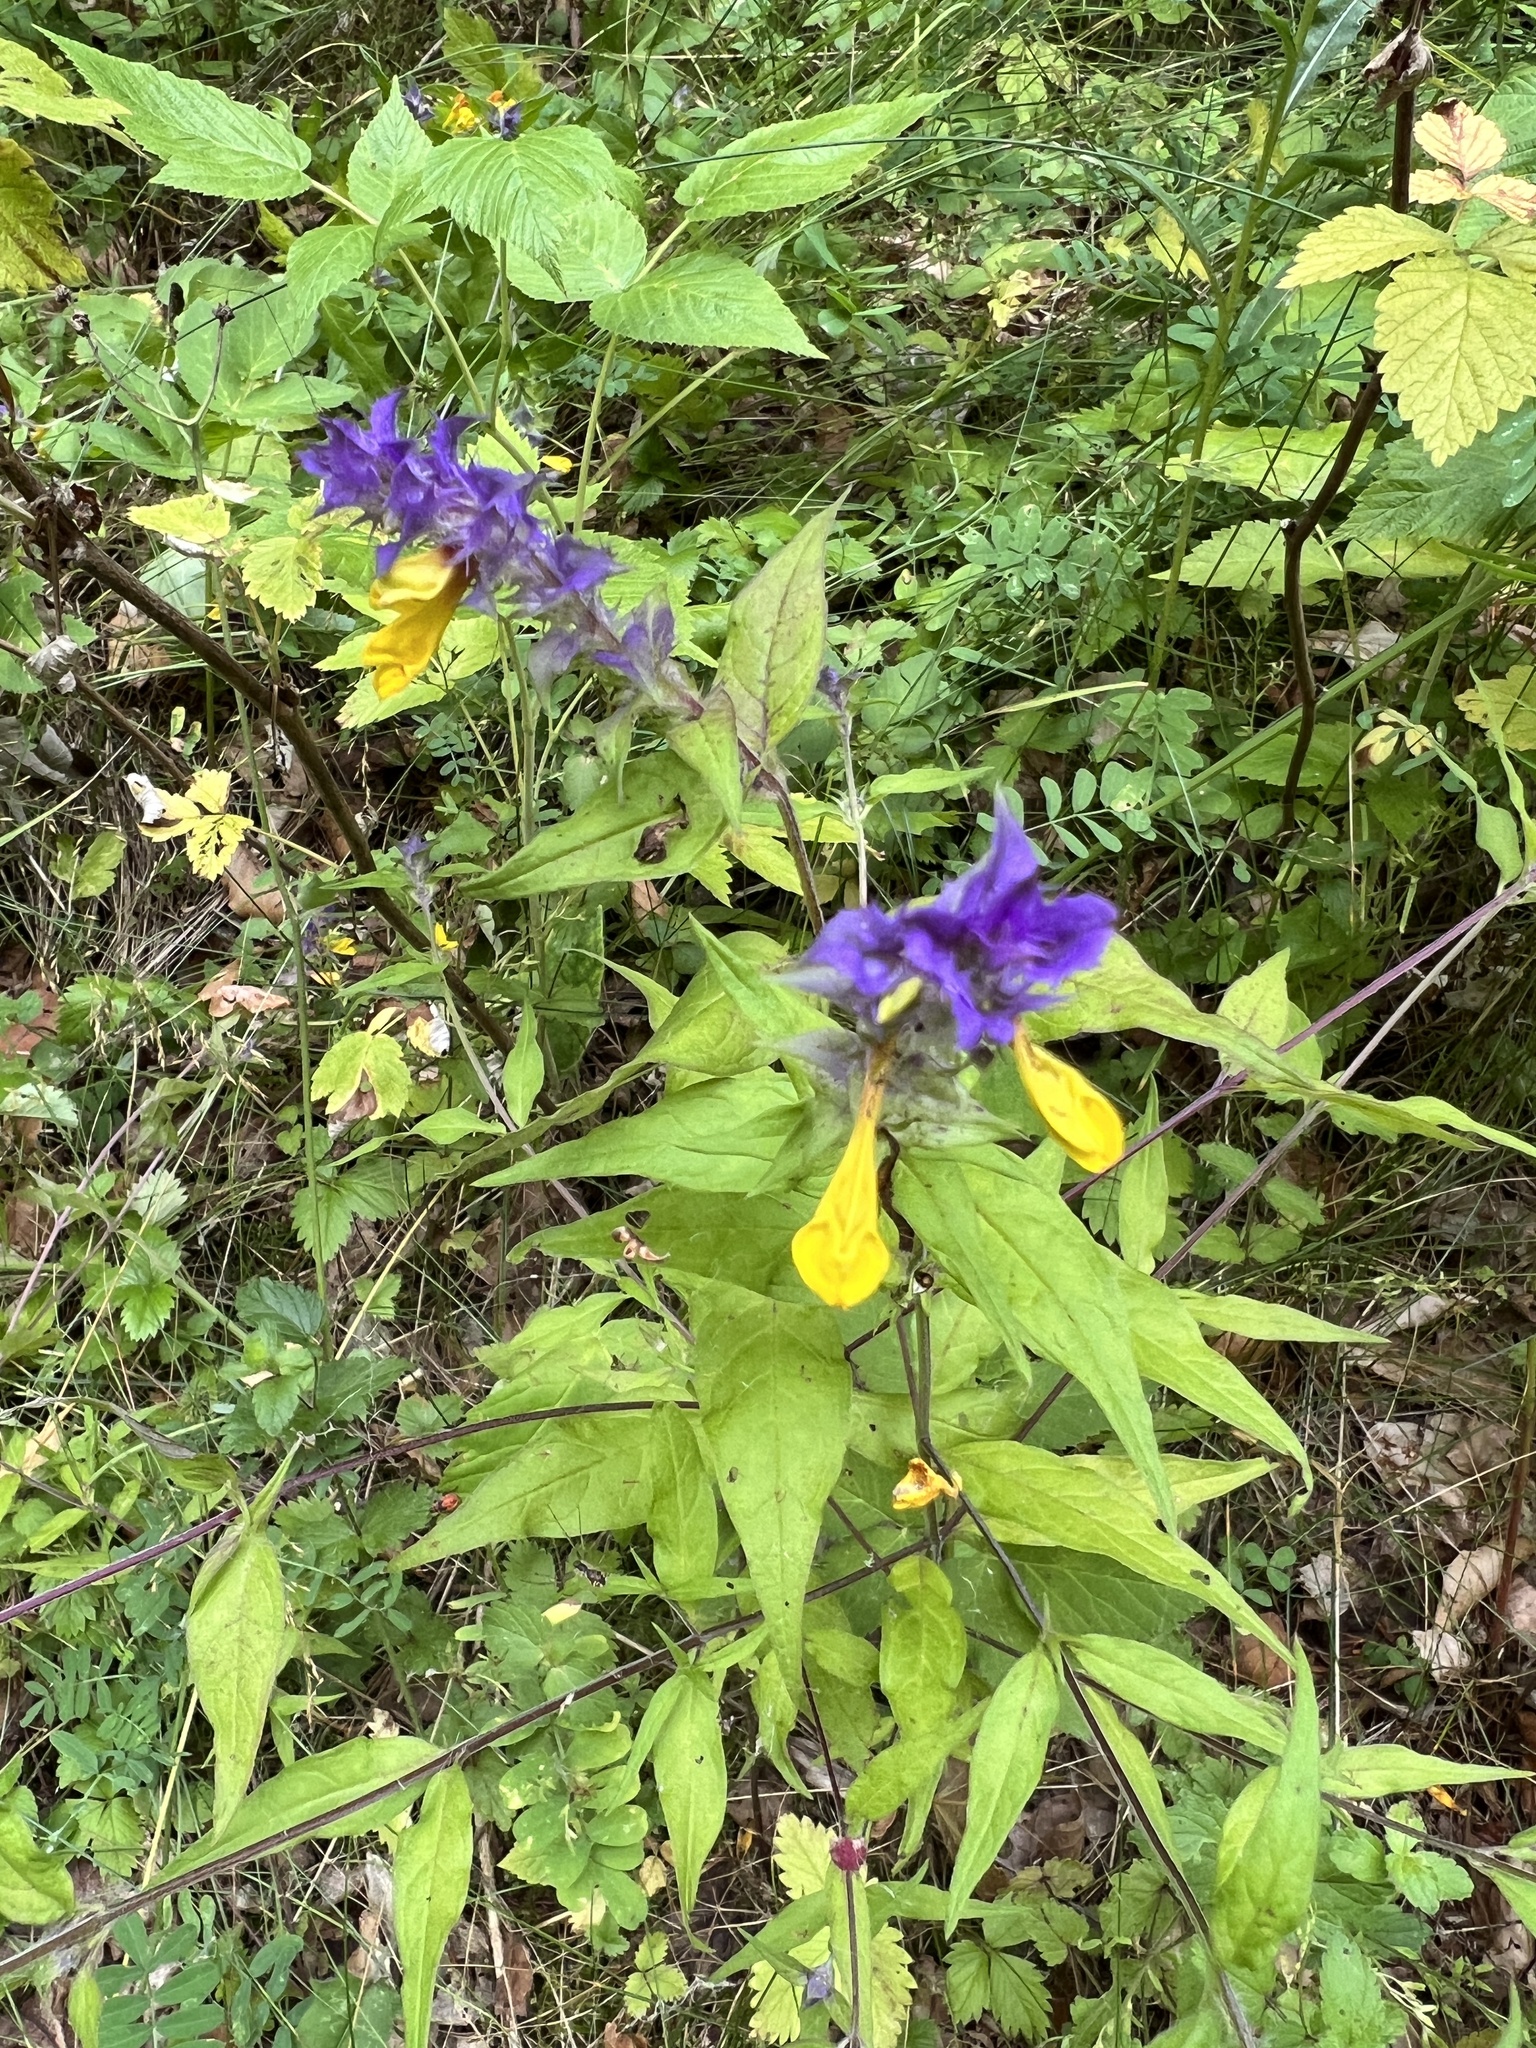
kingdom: Plantae
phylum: Tracheophyta
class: Magnoliopsida
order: Lamiales
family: Orobanchaceae
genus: Melampyrum
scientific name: Melampyrum nemorosum
